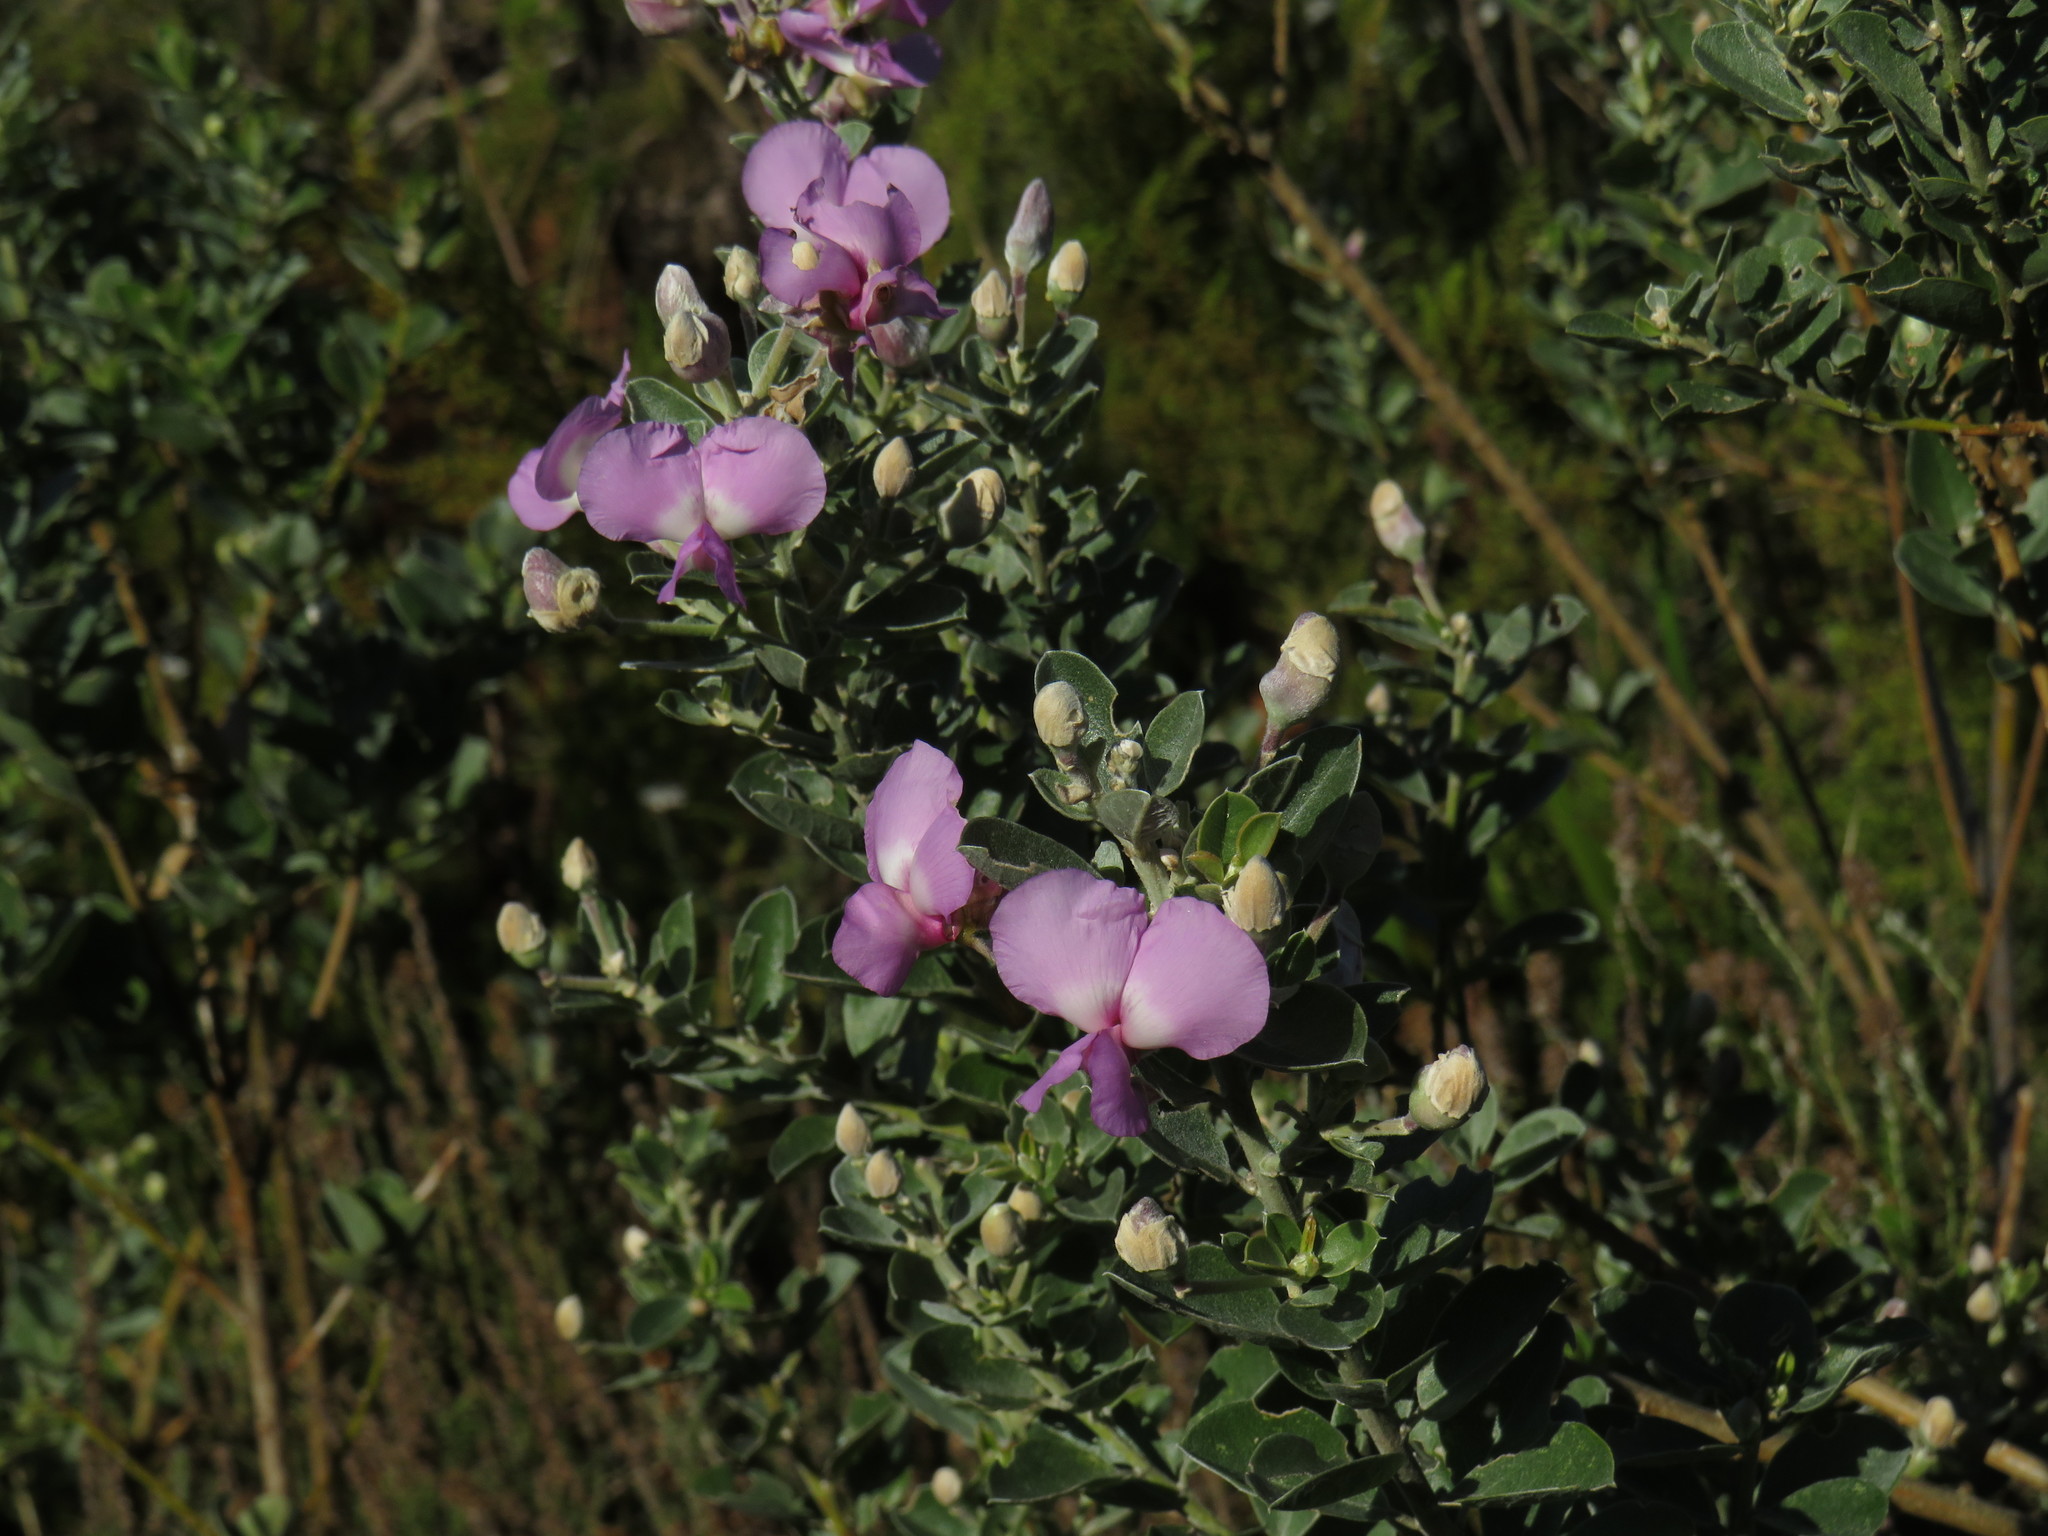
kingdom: Plantae
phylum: Tracheophyta
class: Magnoliopsida
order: Fabales
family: Fabaceae
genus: Podalyria
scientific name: Podalyria calyptrata
